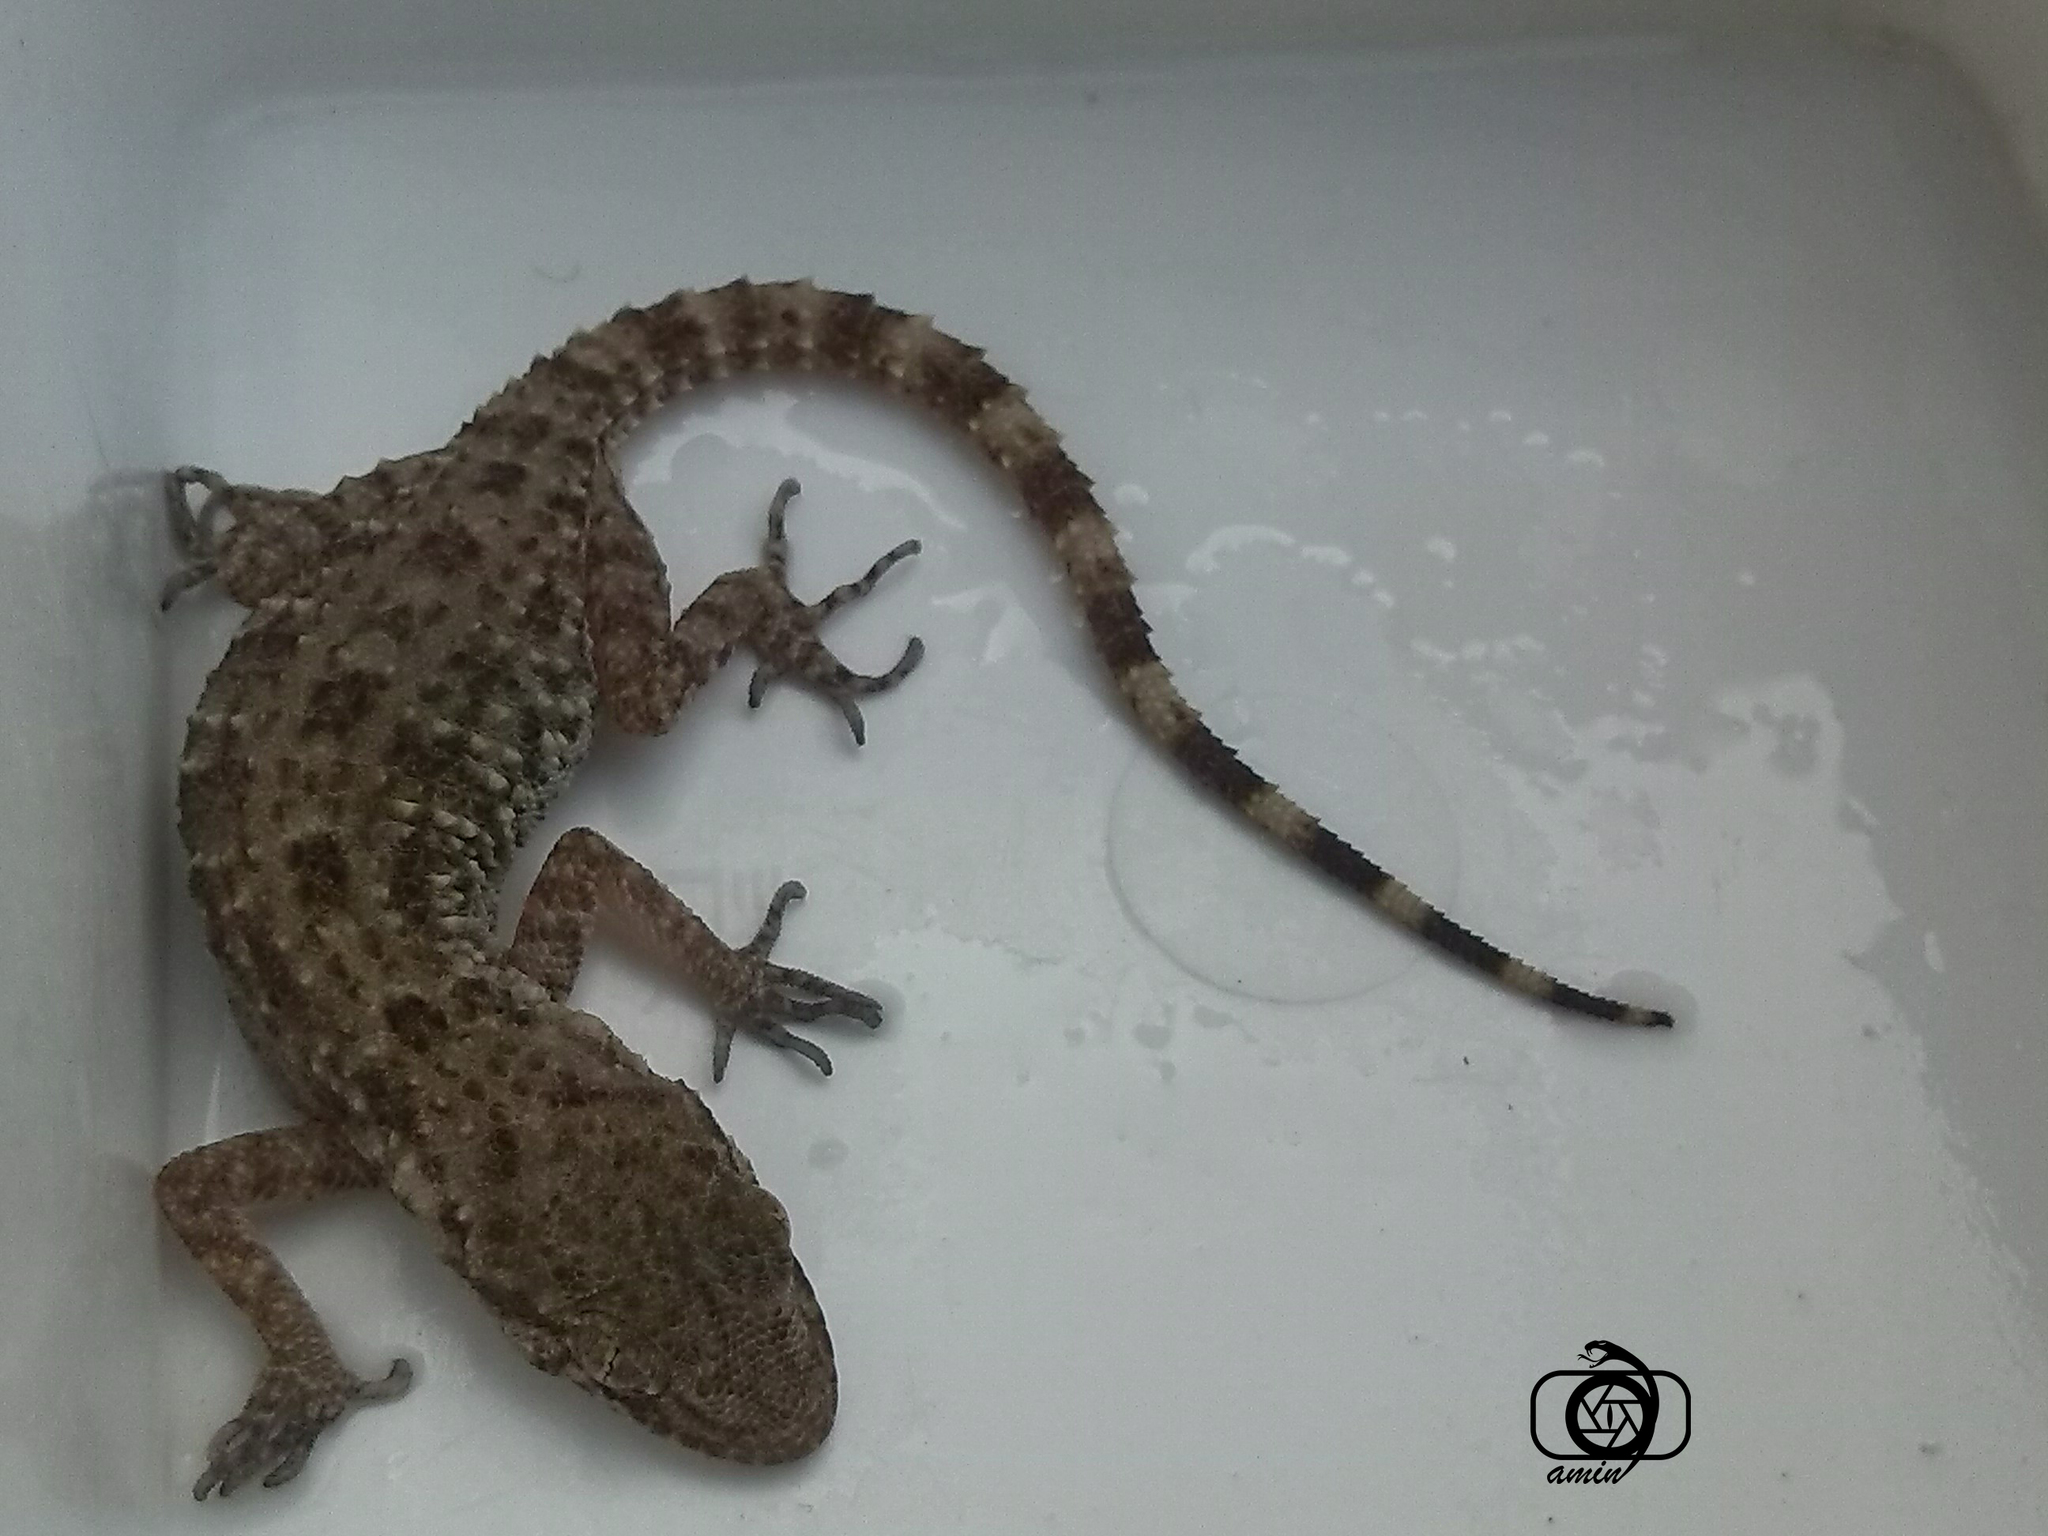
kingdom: Animalia
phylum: Chordata
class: Squamata
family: Gekkonidae
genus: Cyrtopodion
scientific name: Cyrtopodion scabrum
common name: Rough-tailed gecko
